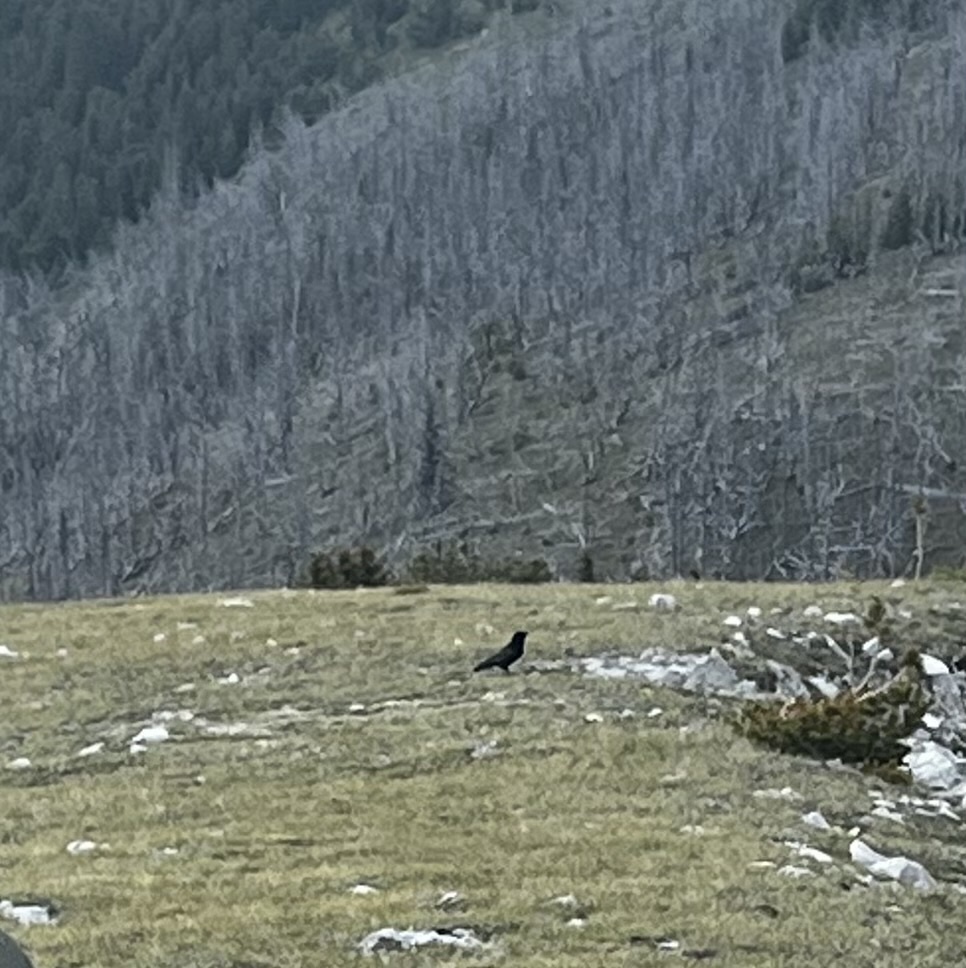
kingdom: Animalia
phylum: Chordata
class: Aves
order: Passeriformes
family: Corvidae
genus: Corvus
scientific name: Corvus corax
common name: Common raven
